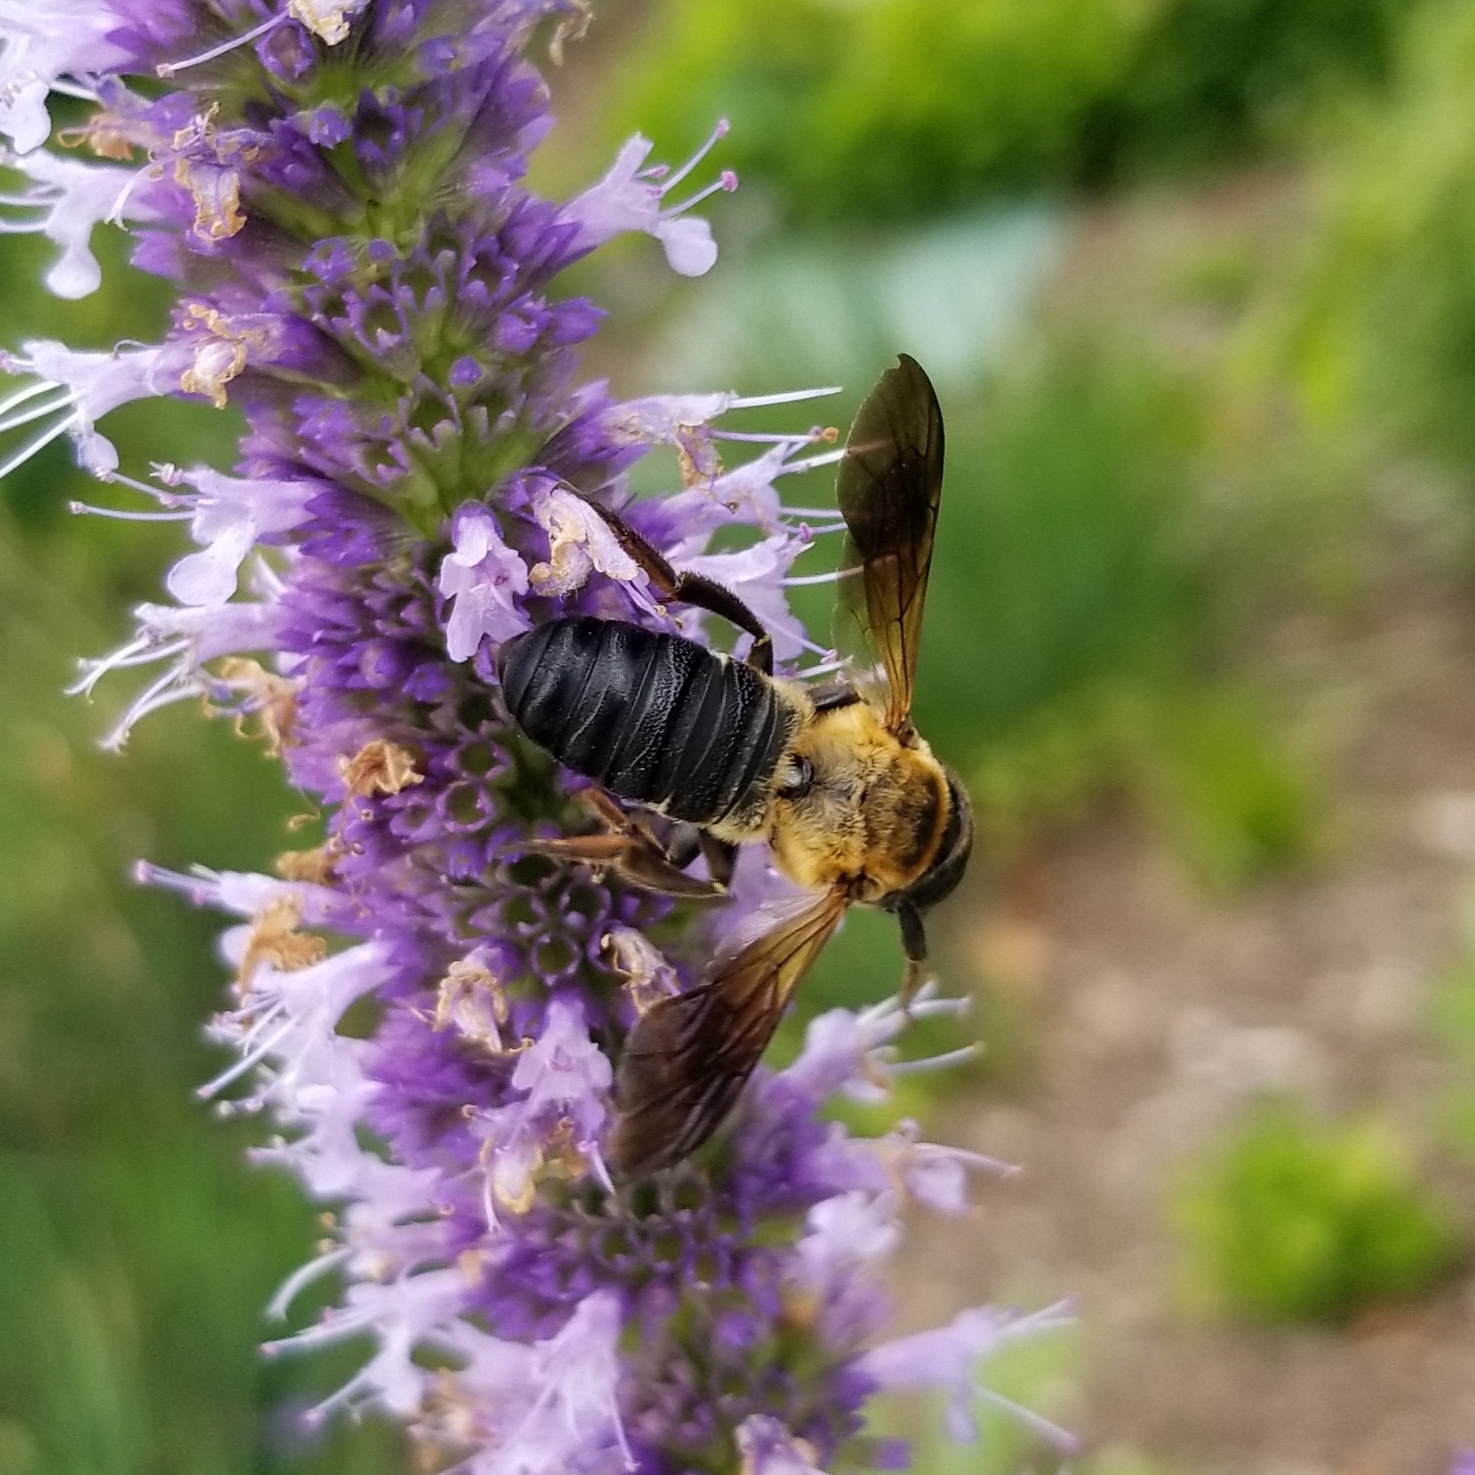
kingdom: Animalia
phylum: Arthropoda
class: Insecta
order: Hymenoptera
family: Megachilidae
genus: Megachile
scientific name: Megachile sculpturalis
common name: Sculptured resin bee
